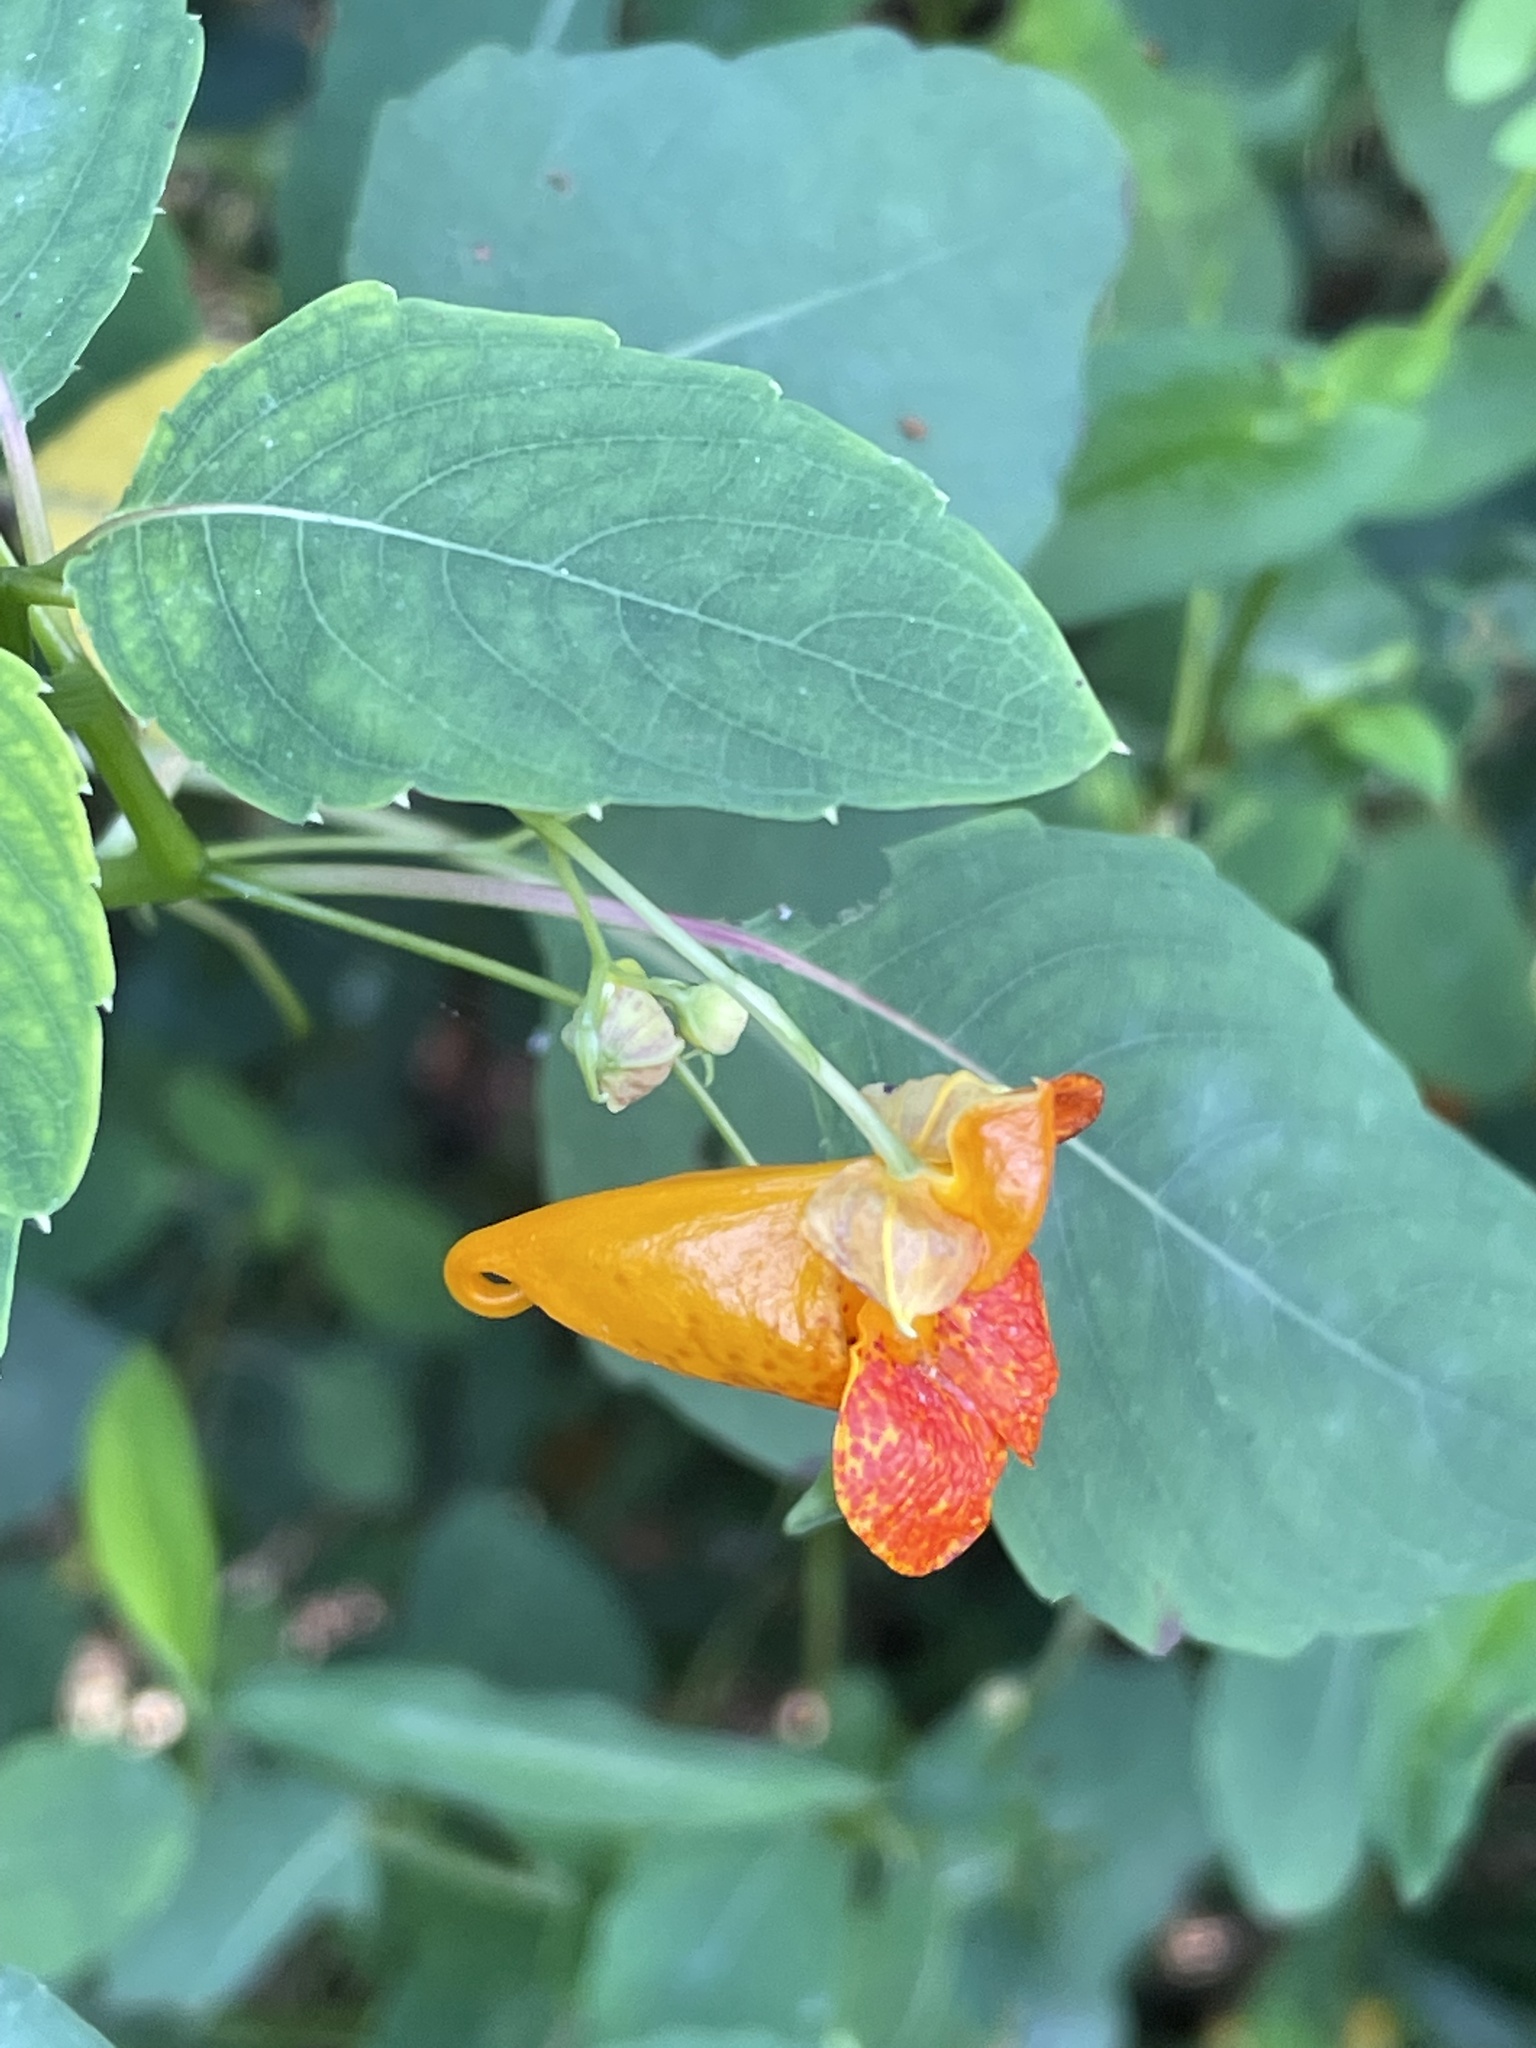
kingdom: Plantae
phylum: Tracheophyta
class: Magnoliopsida
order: Ericales
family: Balsaminaceae
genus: Impatiens
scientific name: Impatiens capensis
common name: Orange balsam
